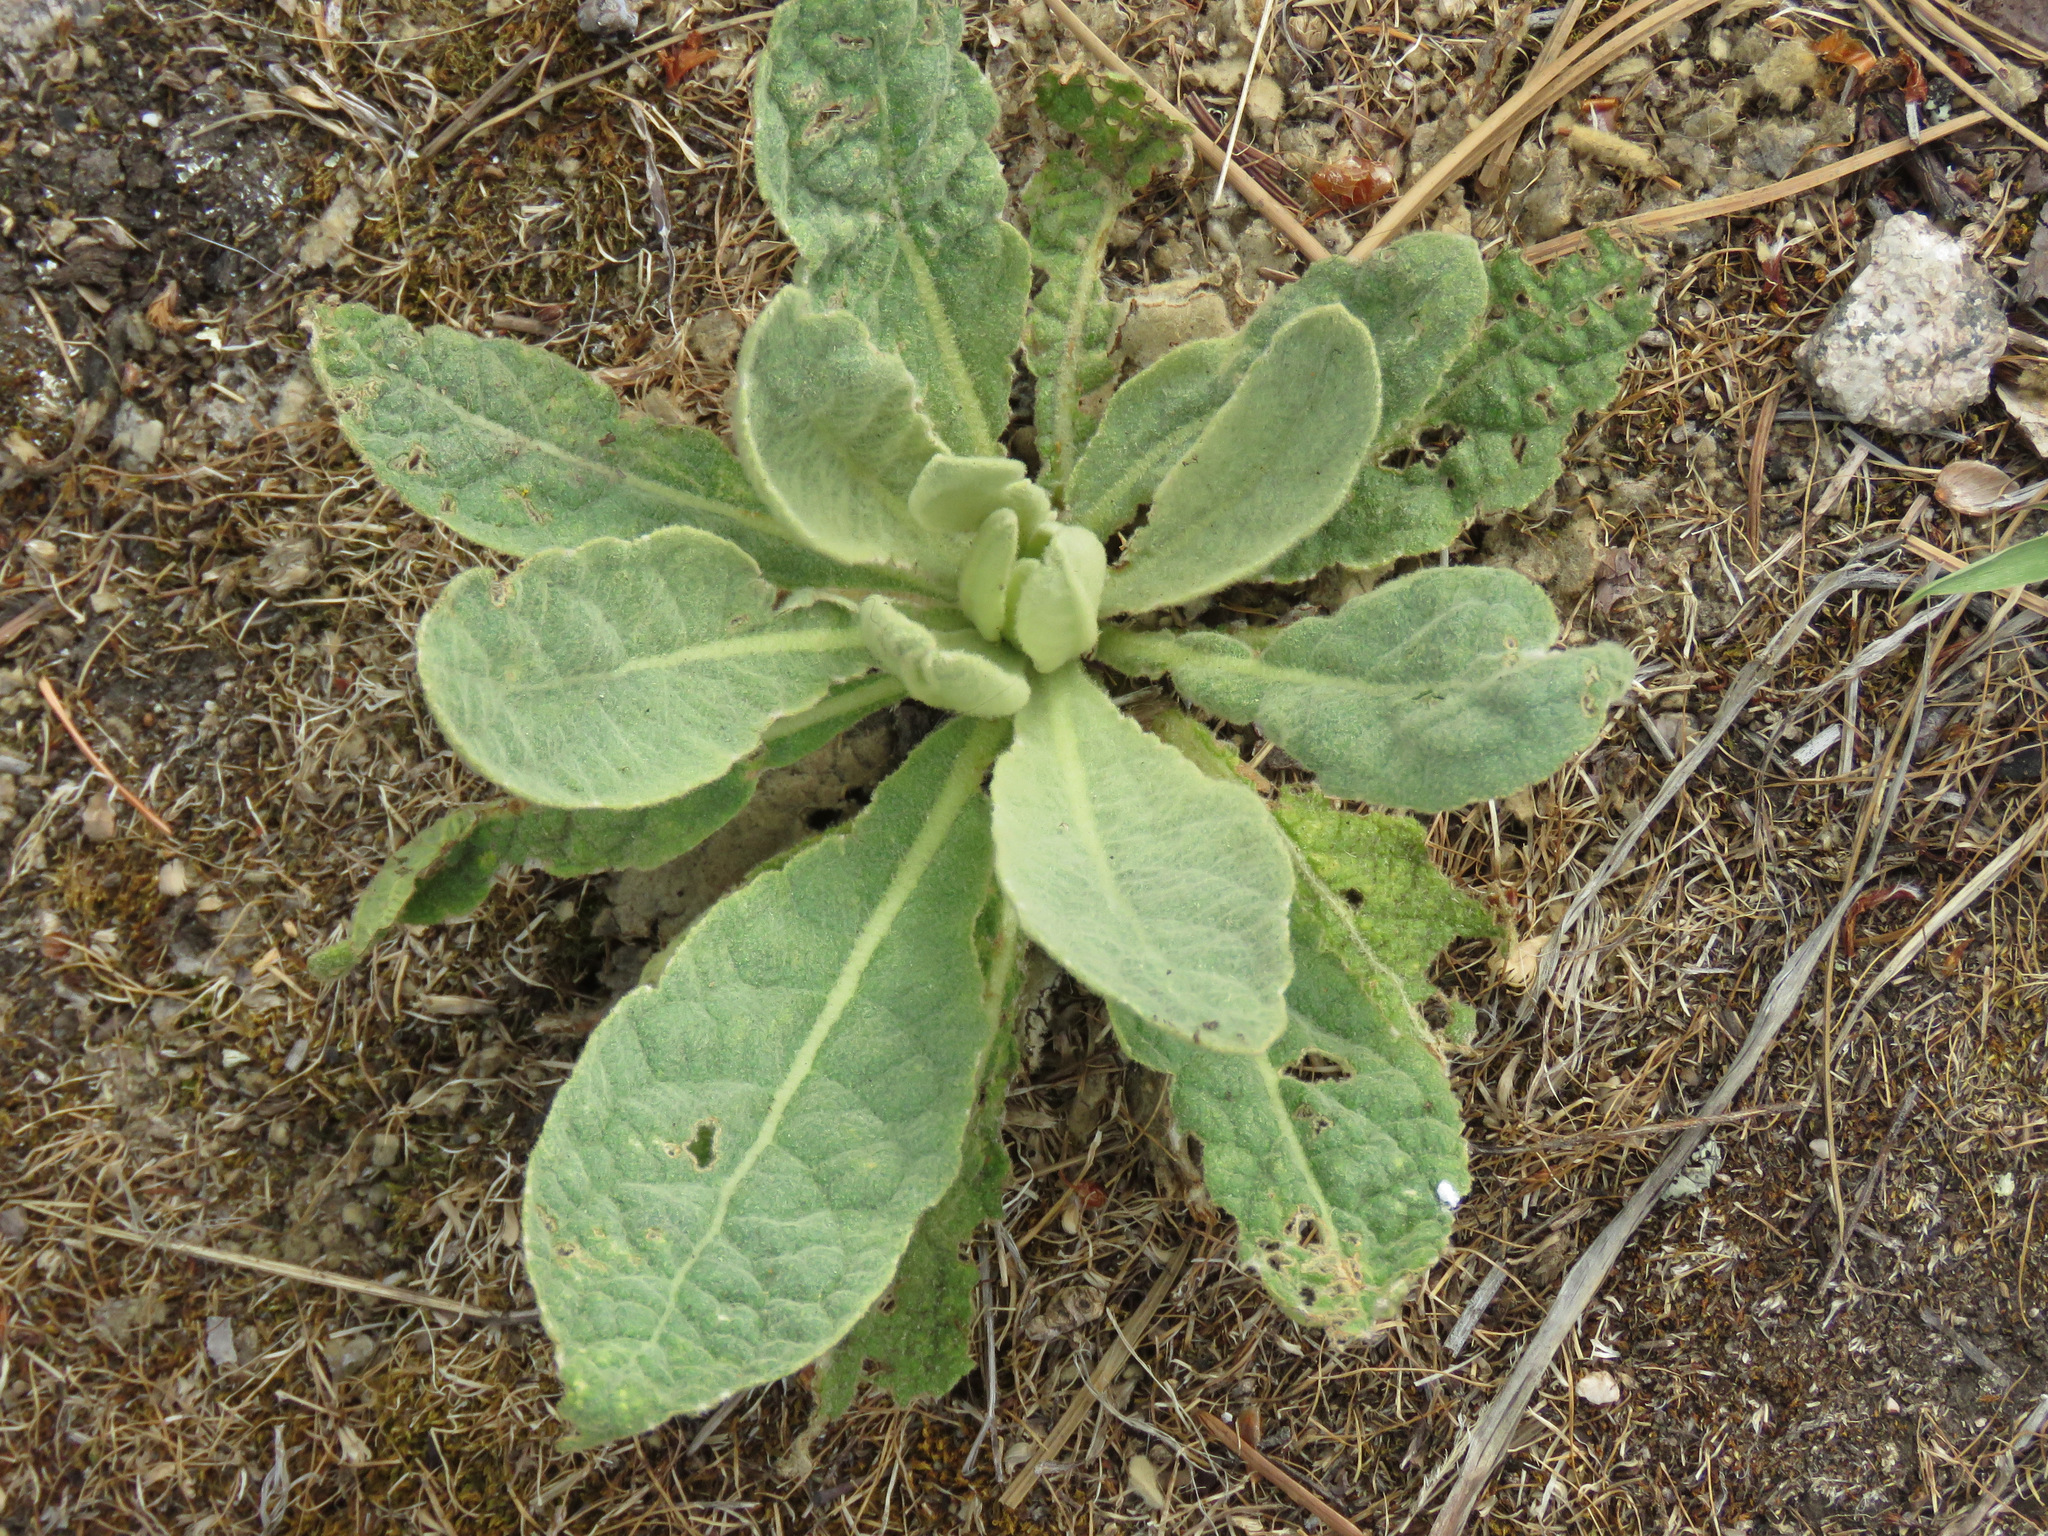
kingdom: Plantae
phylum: Tracheophyta
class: Magnoliopsida
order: Lamiales
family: Scrophulariaceae
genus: Verbascum
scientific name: Verbascum thapsus
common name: Common mullein
